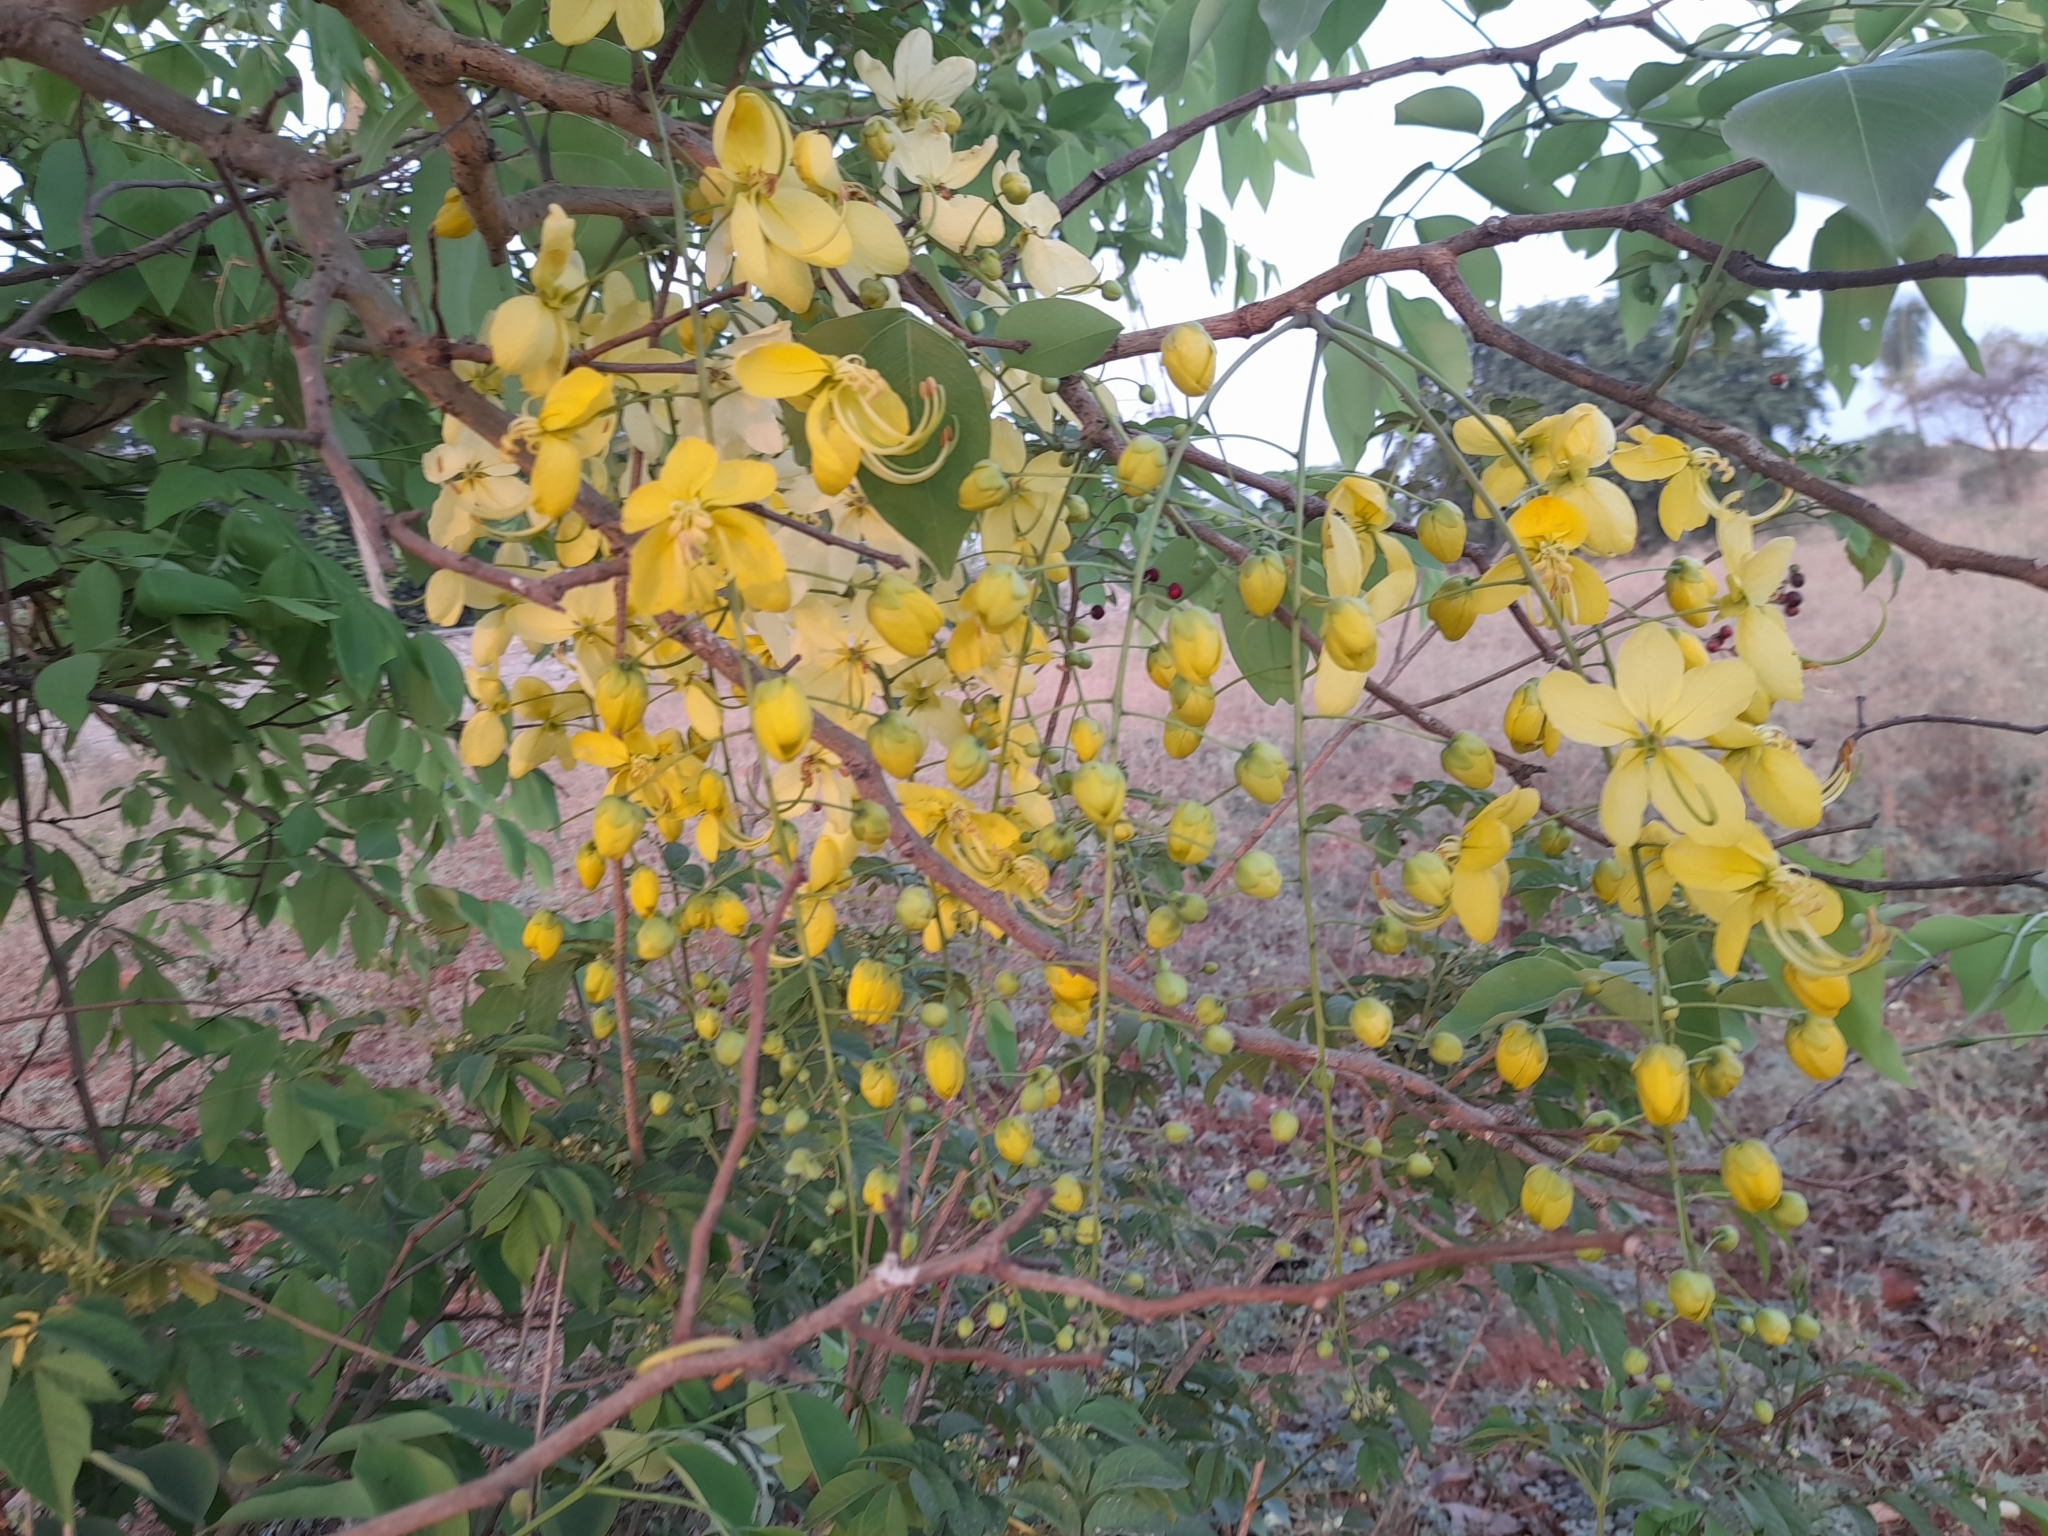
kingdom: Plantae
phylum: Tracheophyta
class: Magnoliopsida
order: Fabales
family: Fabaceae
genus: Cassia
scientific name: Cassia fistula
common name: Golden shower
